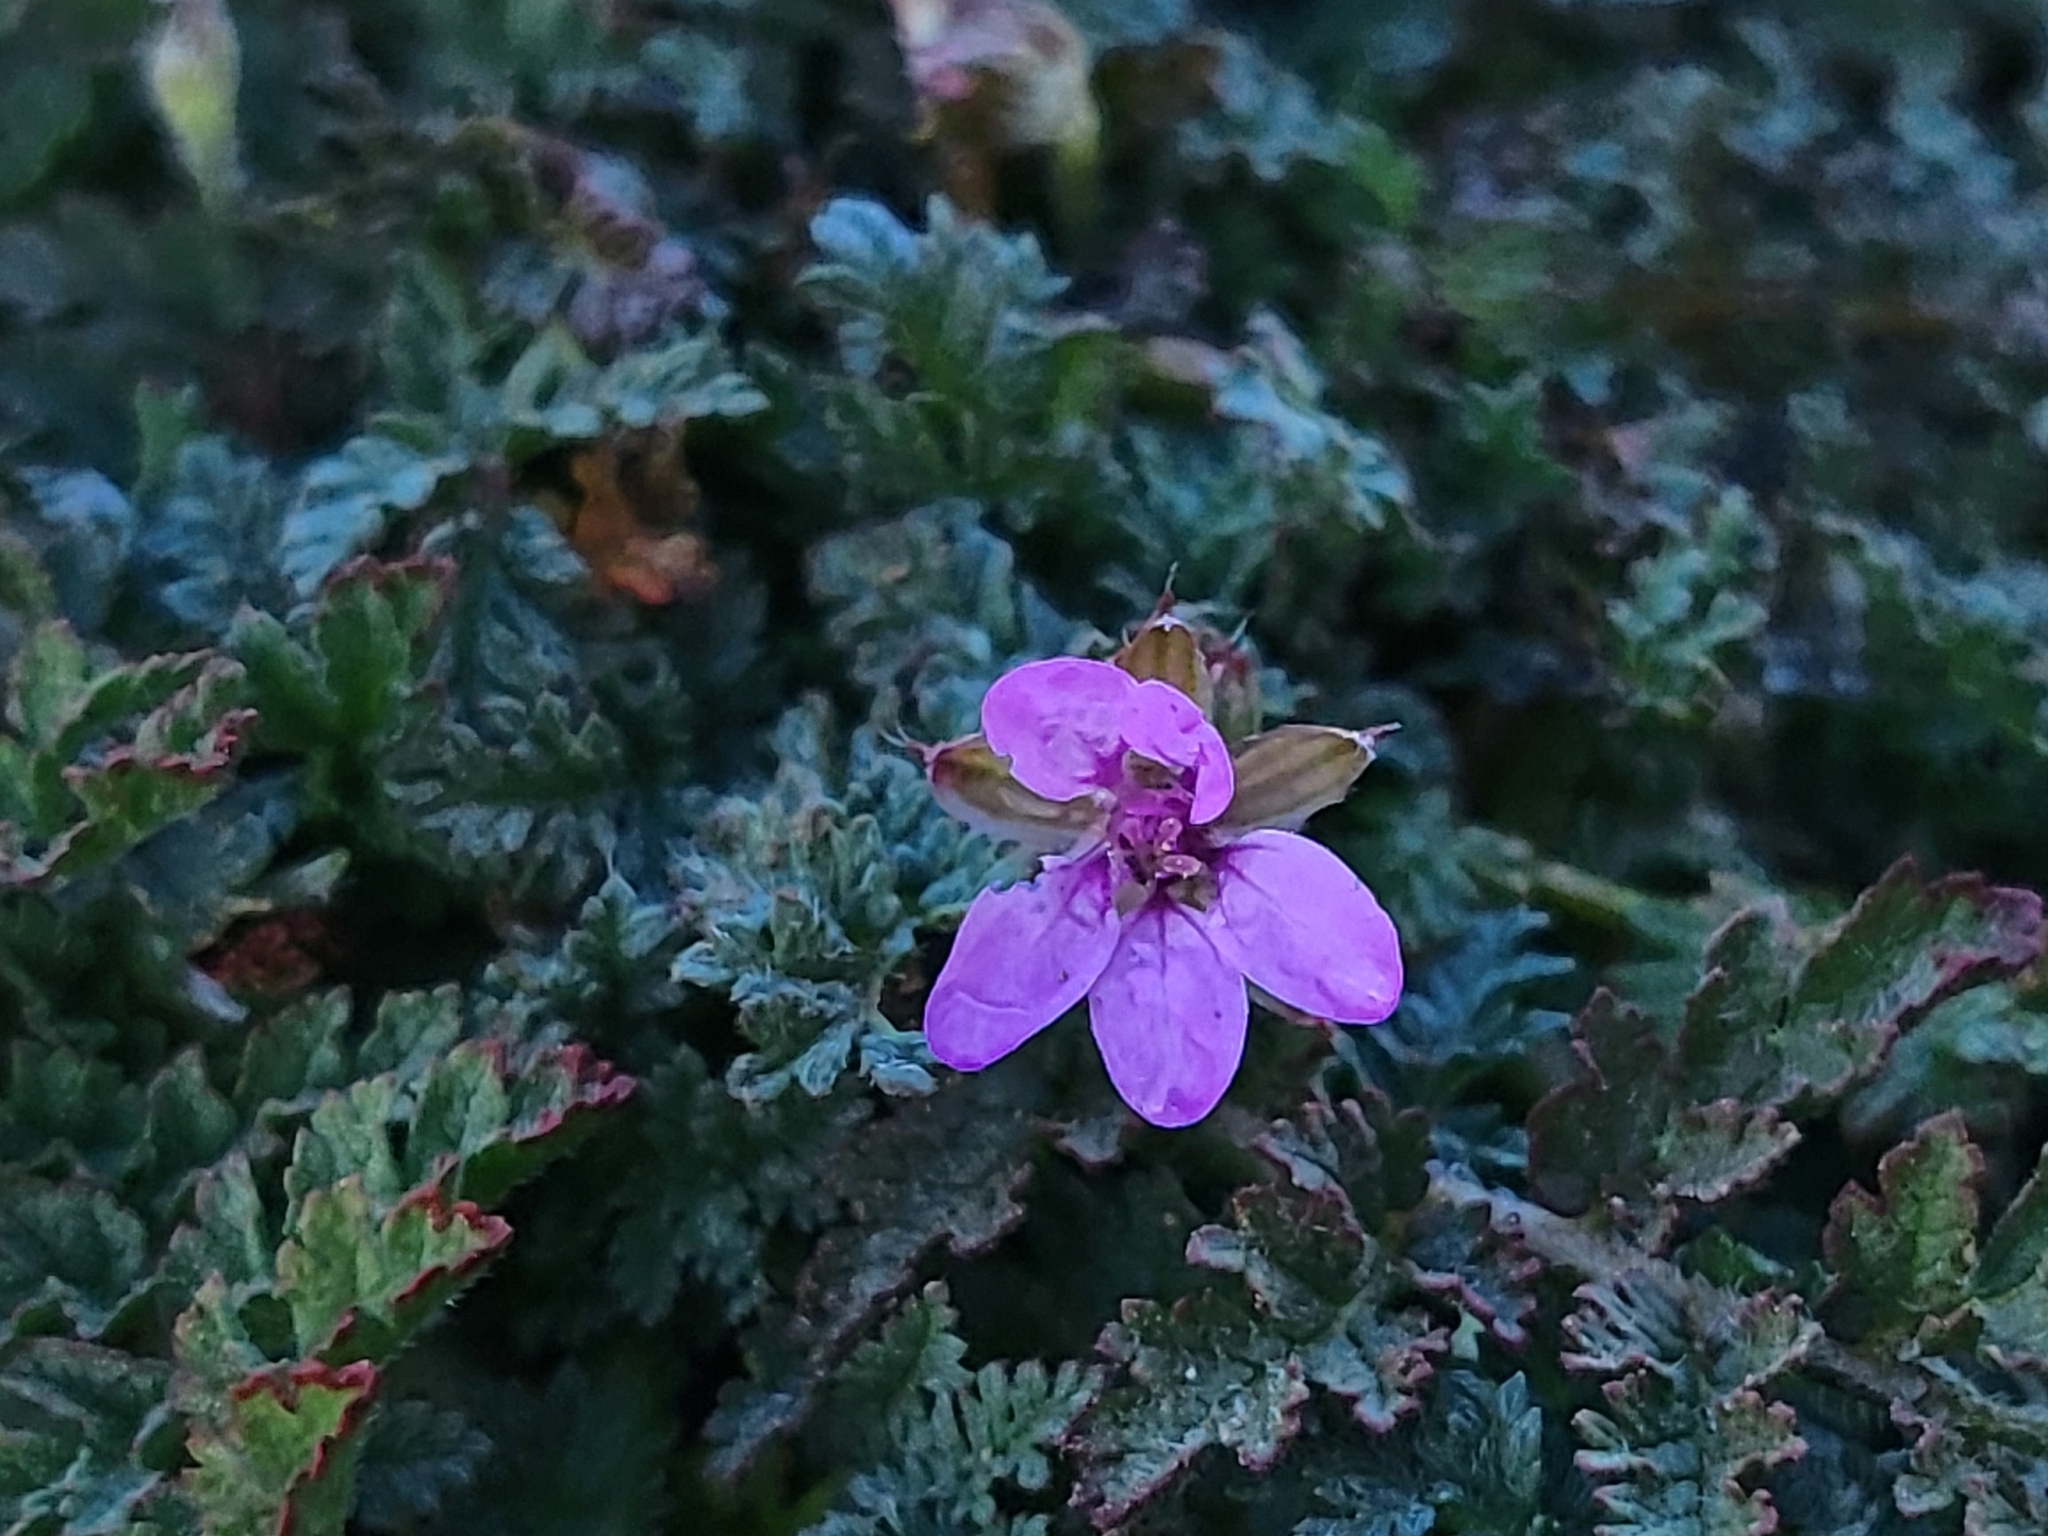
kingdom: Plantae
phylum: Tracheophyta
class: Magnoliopsida
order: Geraniales
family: Geraniaceae
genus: Erodium
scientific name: Erodium cicutarium
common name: Common stork's-bill
